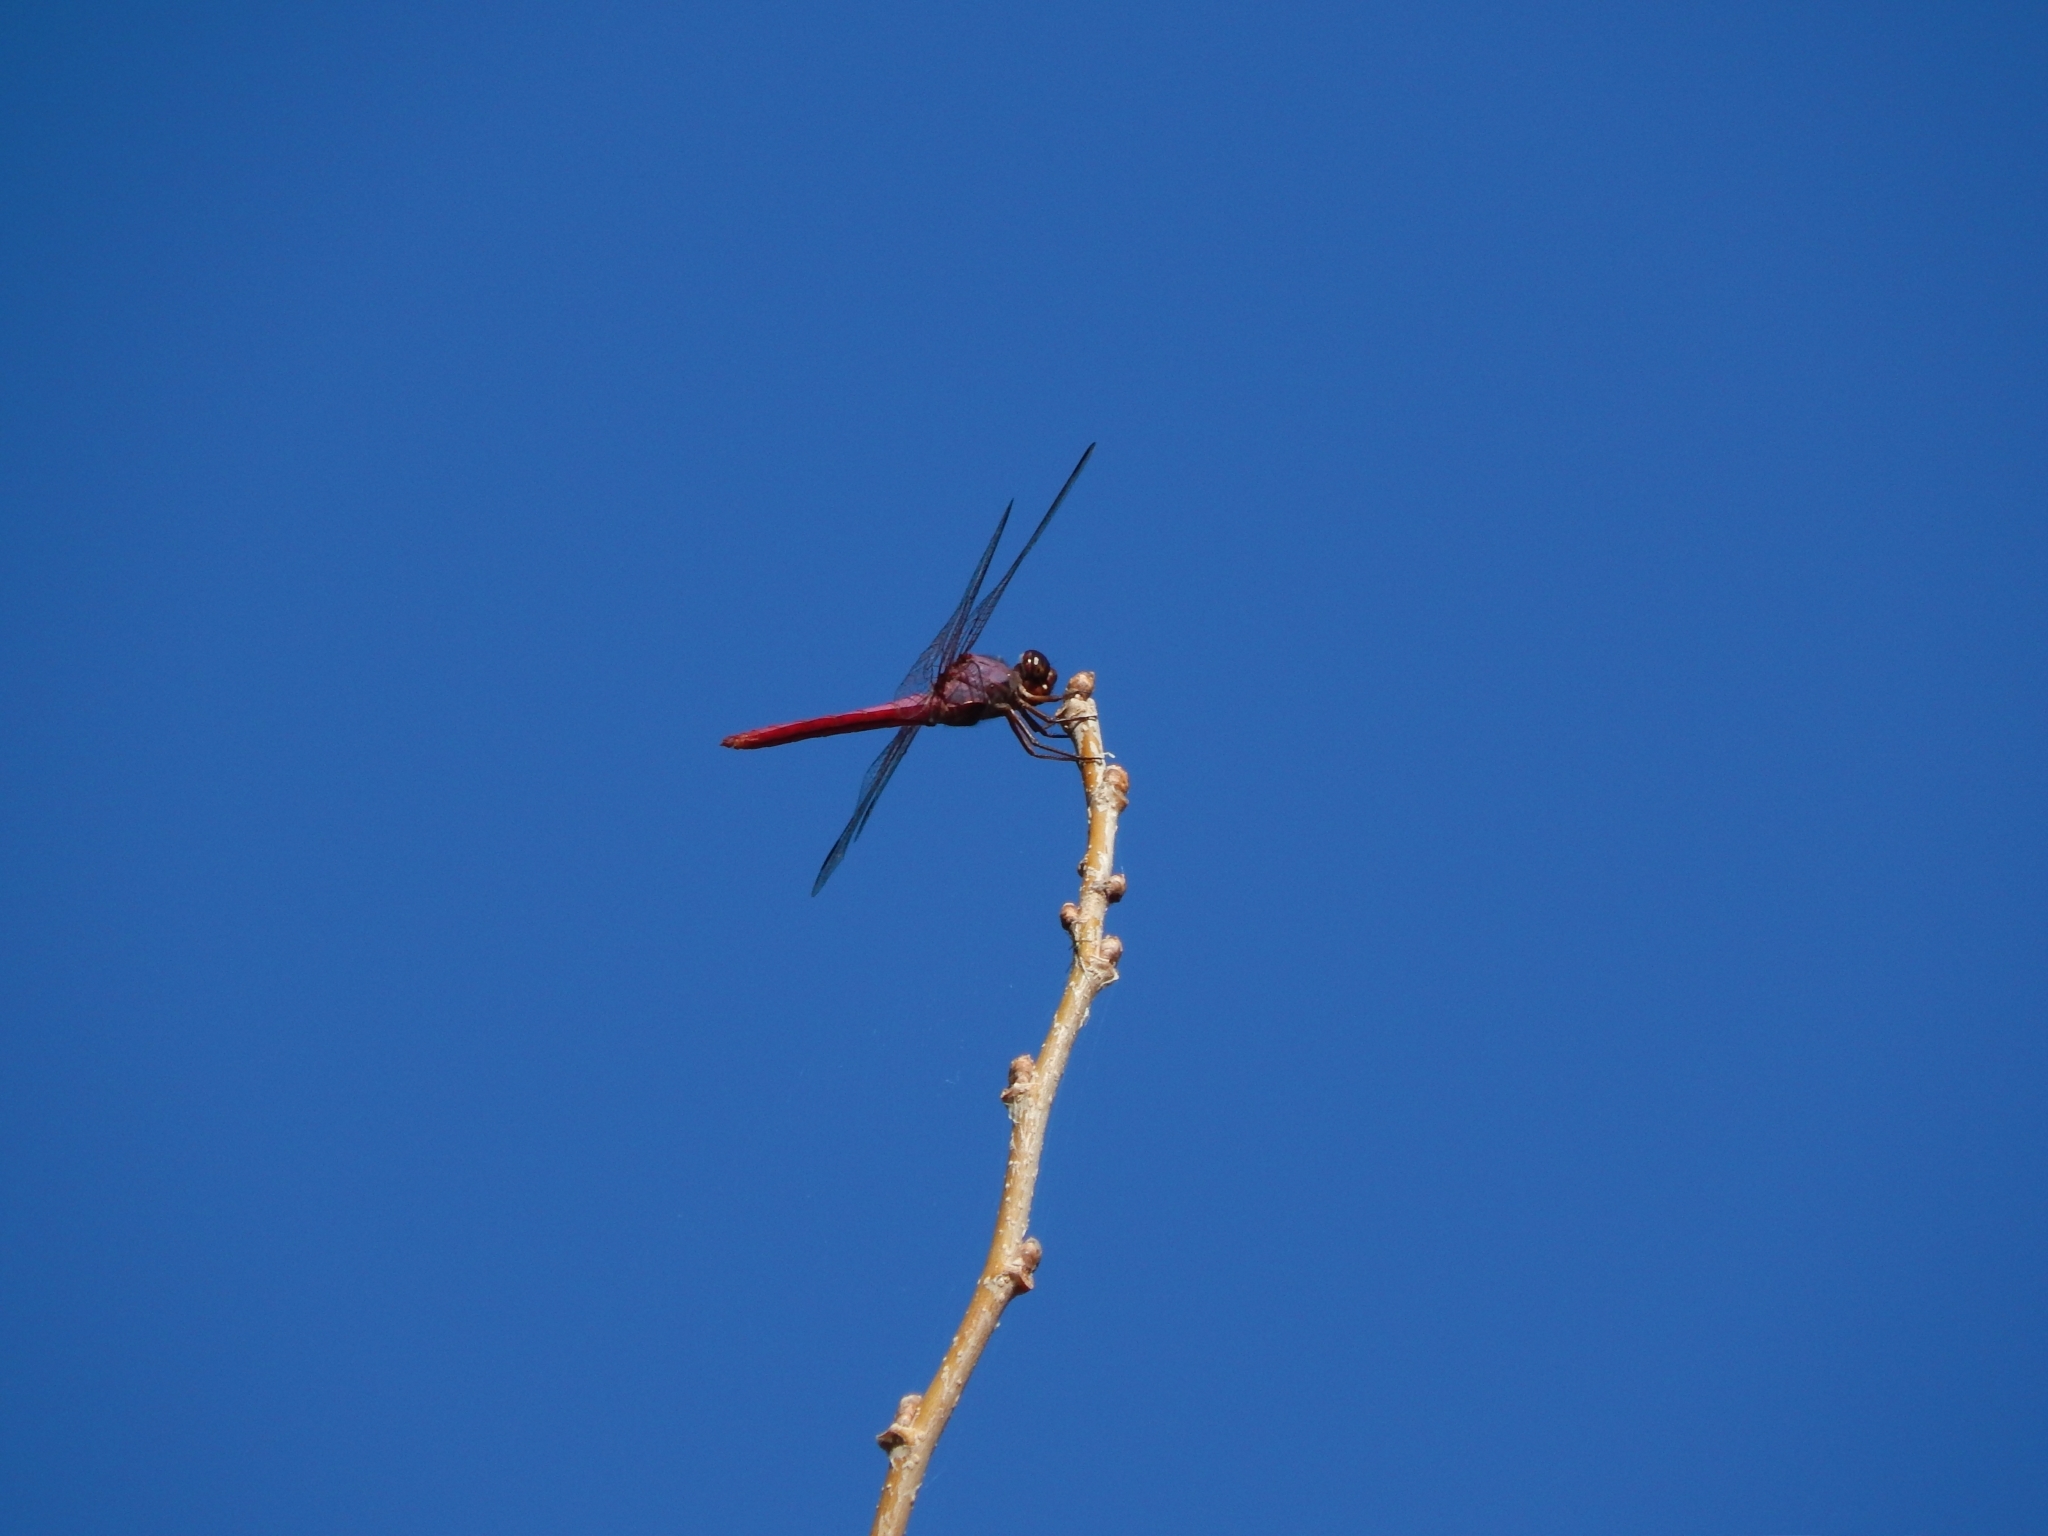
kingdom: Animalia
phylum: Arthropoda
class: Insecta
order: Odonata
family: Libellulidae
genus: Orthemis
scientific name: Orthemis ferruginea
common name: Roseate skimmer
